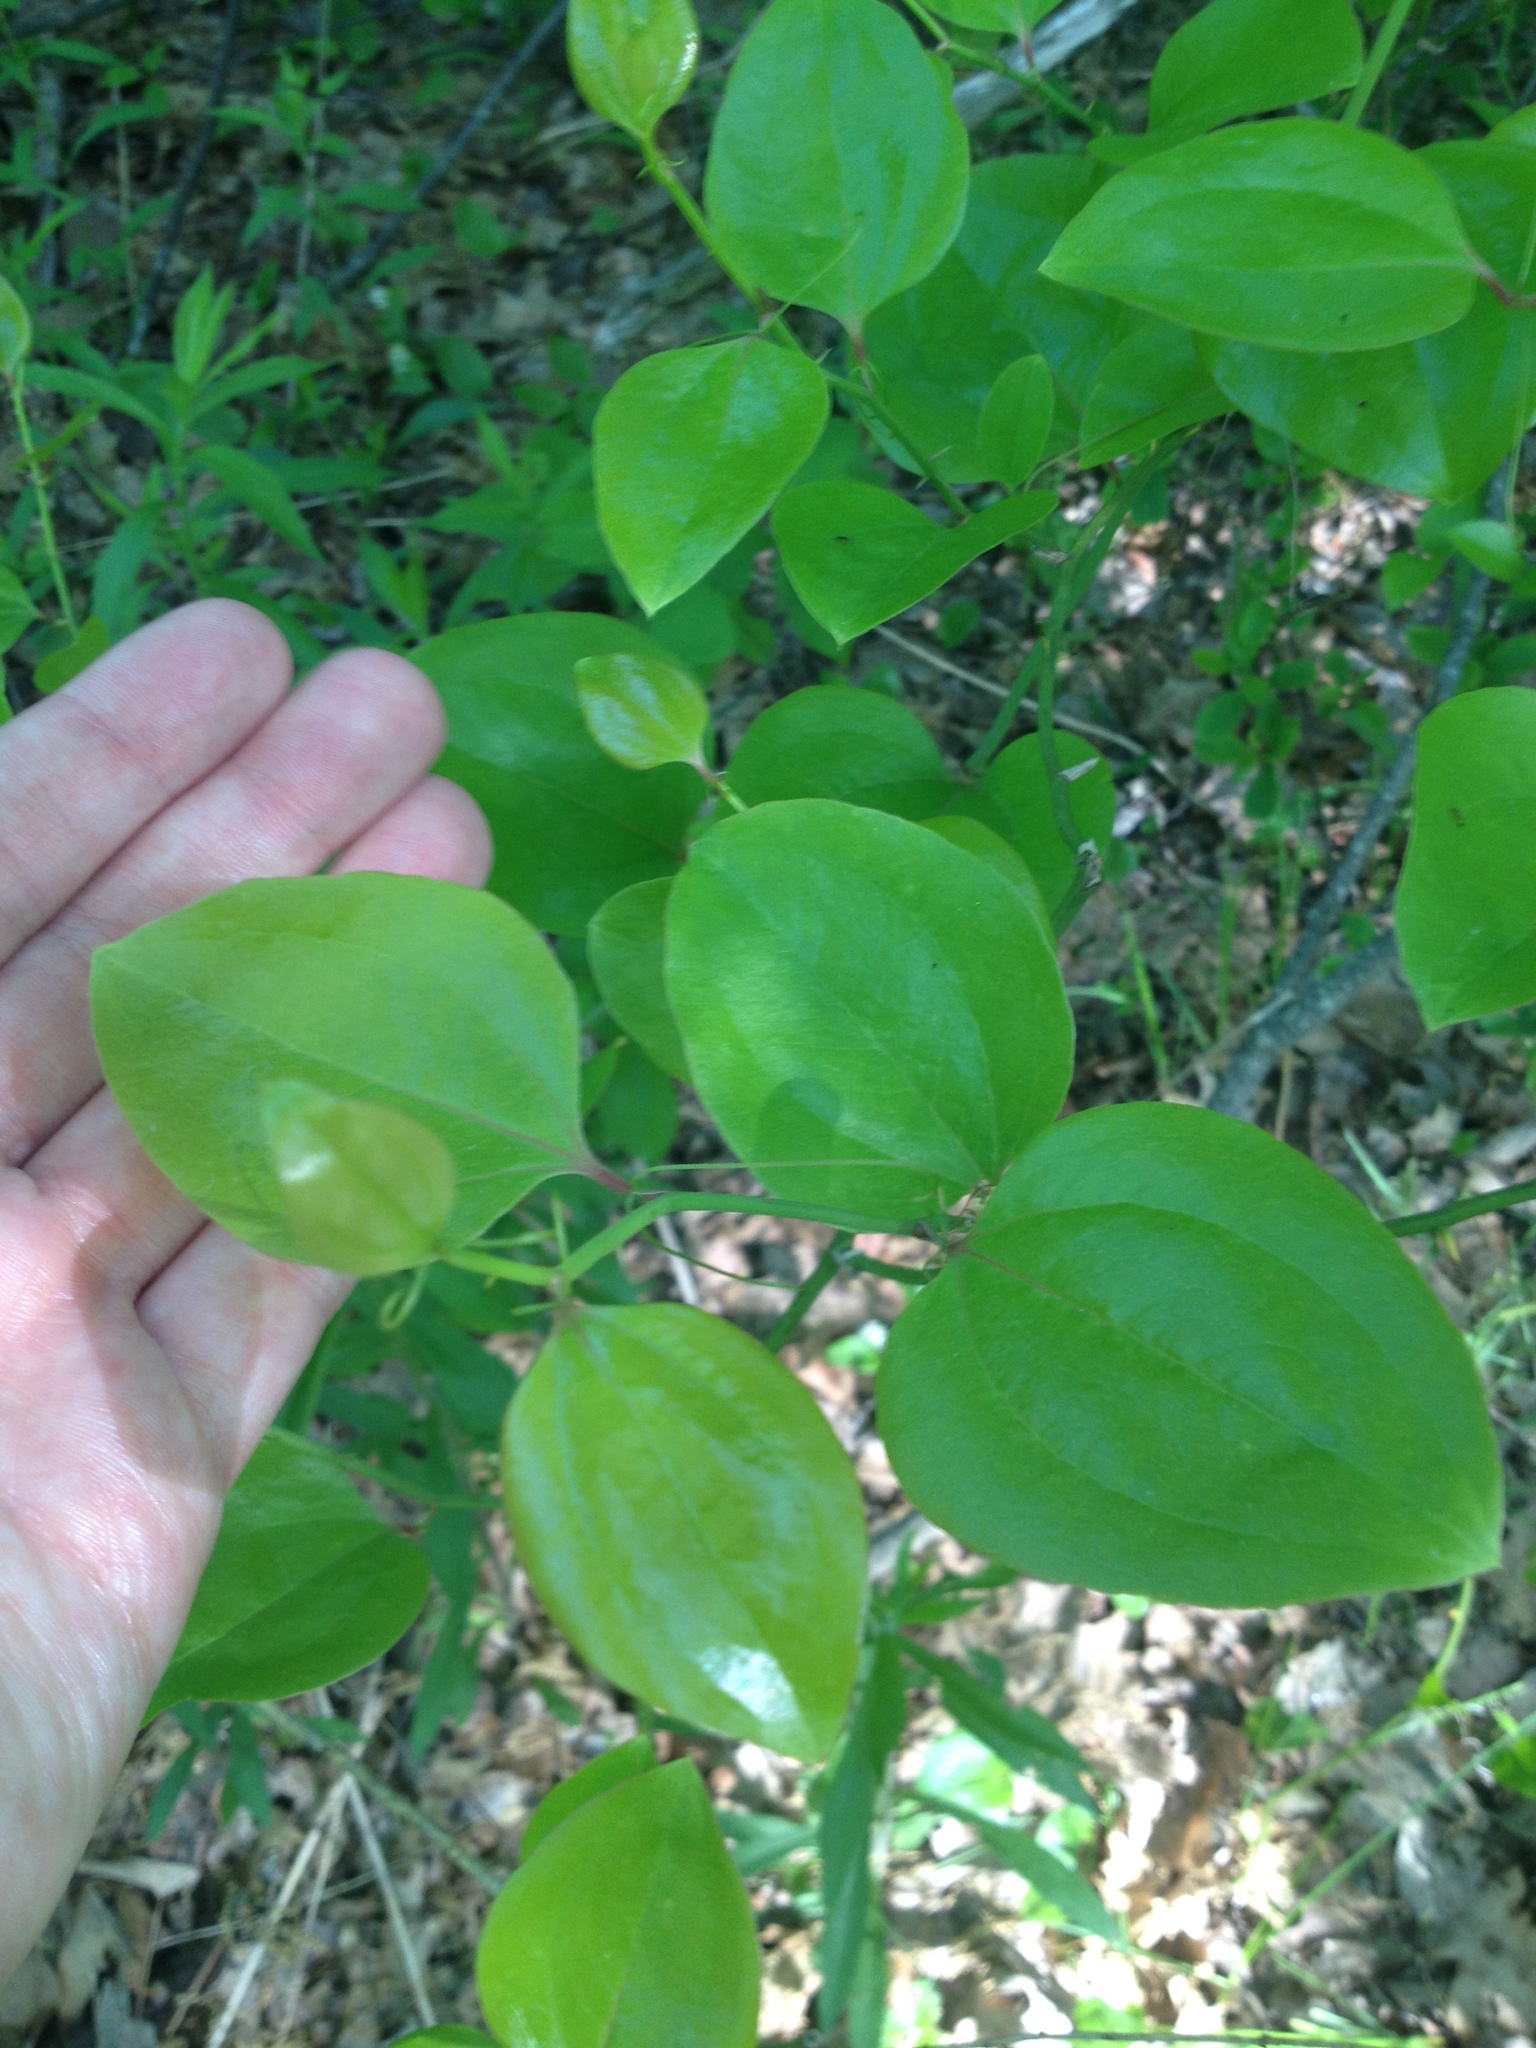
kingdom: Plantae
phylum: Tracheophyta
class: Liliopsida
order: Liliales
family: Smilacaceae
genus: Smilax
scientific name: Smilax rotundifolia
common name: Bullbriar
